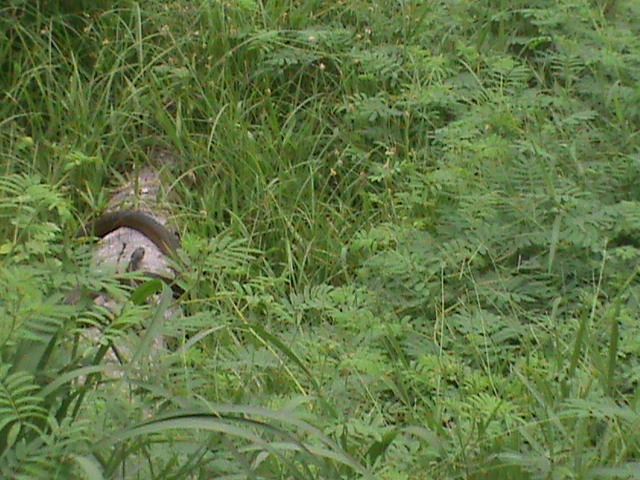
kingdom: Animalia
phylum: Chordata
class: Squamata
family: Colubridae
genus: Ptyas
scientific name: Ptyas mucosa
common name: Oriental ratsnake
